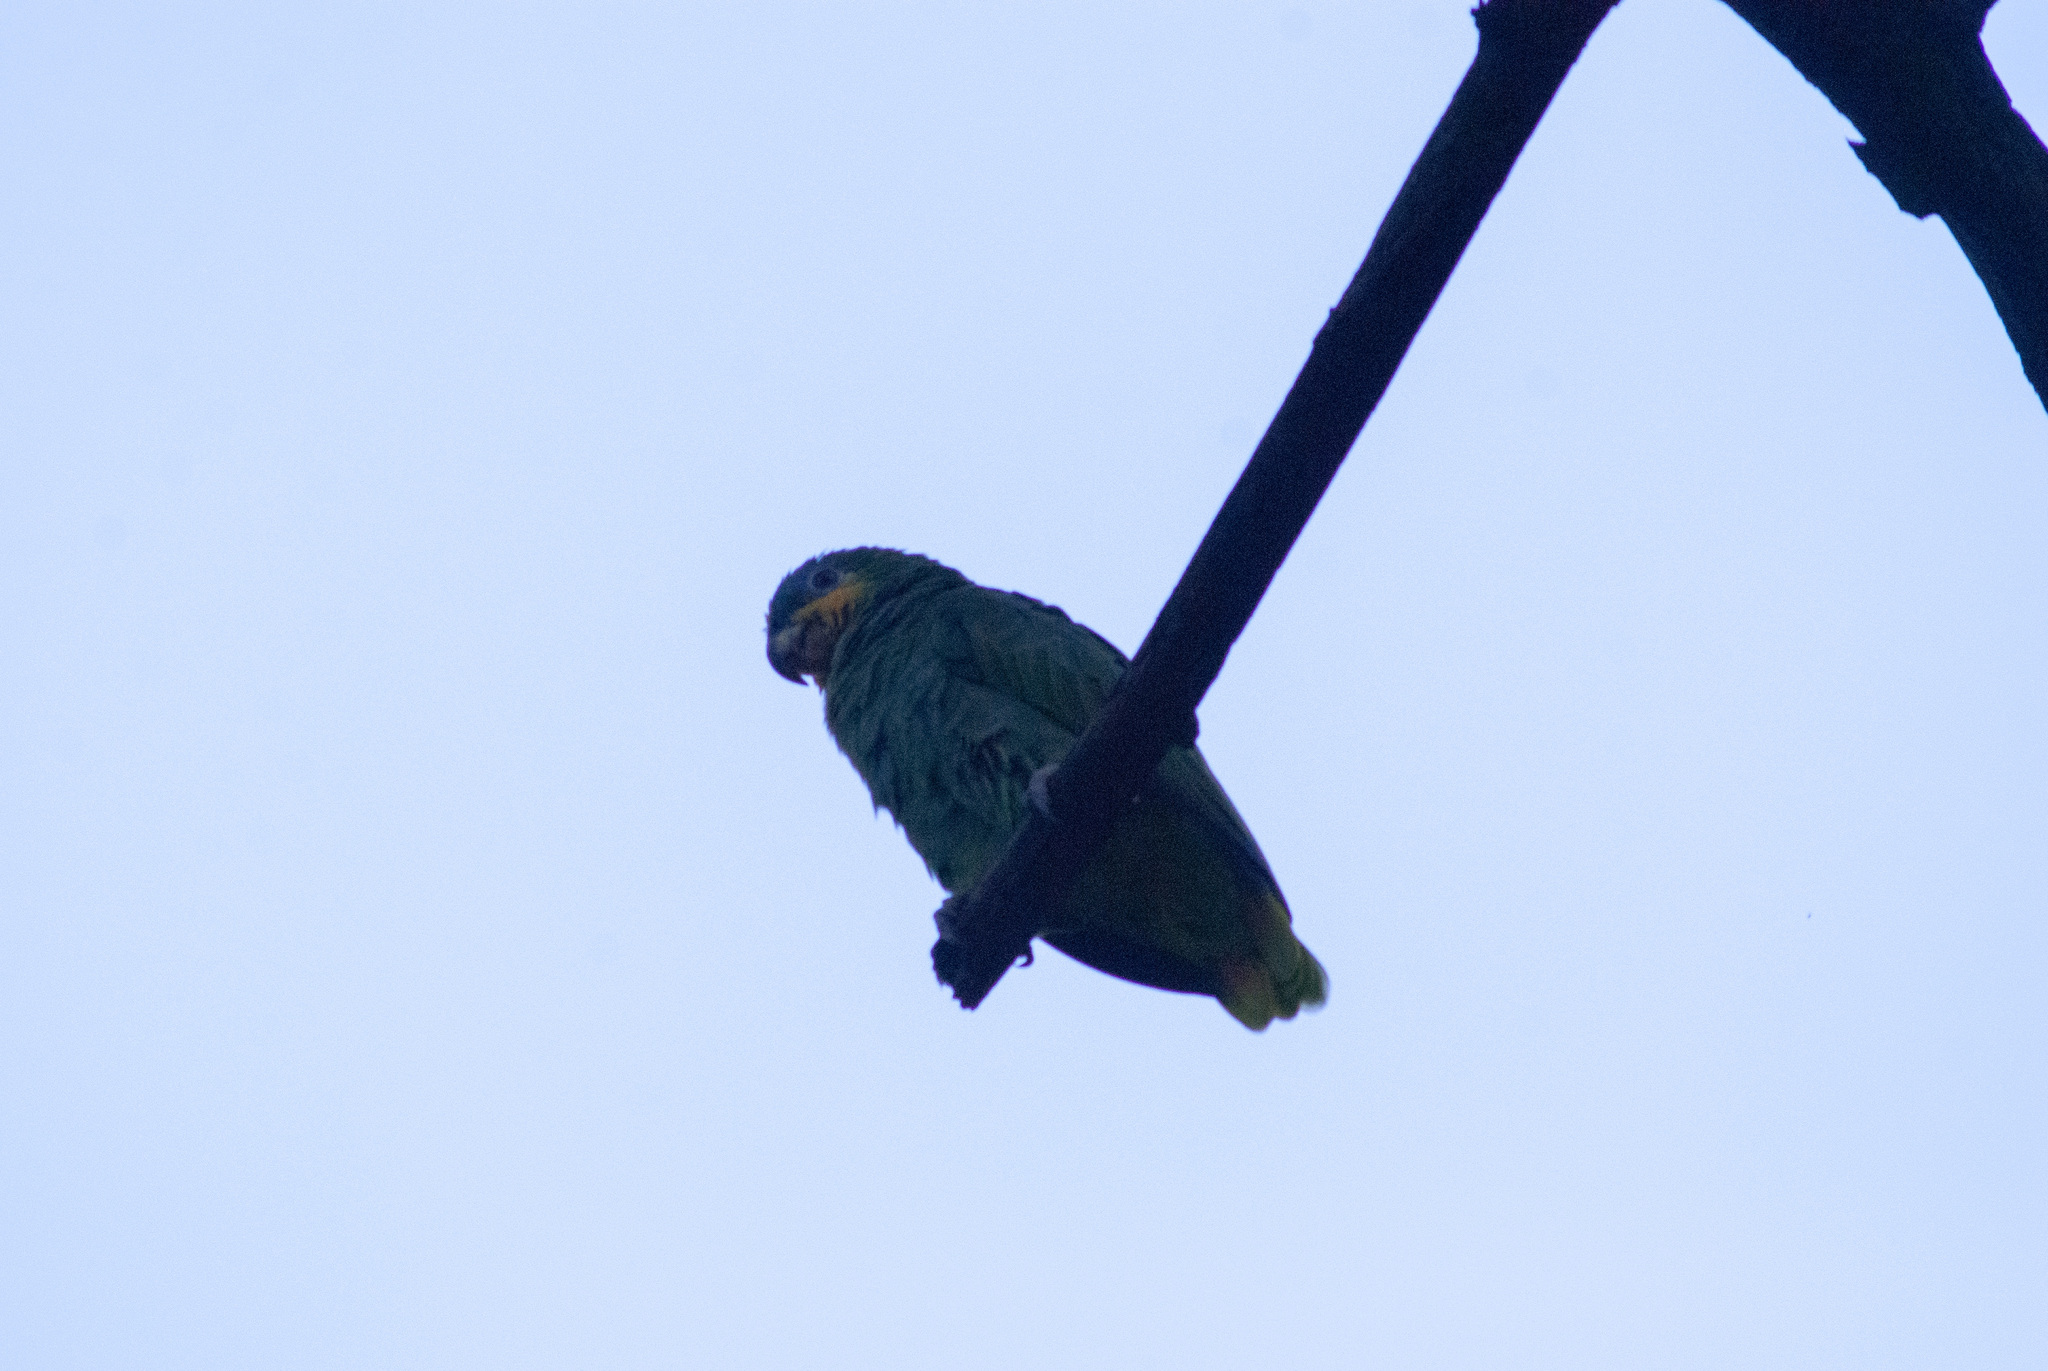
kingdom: Animalia
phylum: Chordata
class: Aves
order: Psittaciformes
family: Psittacidae
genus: Amazona
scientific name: Amazona amazonica
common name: Orange-winged amazon
